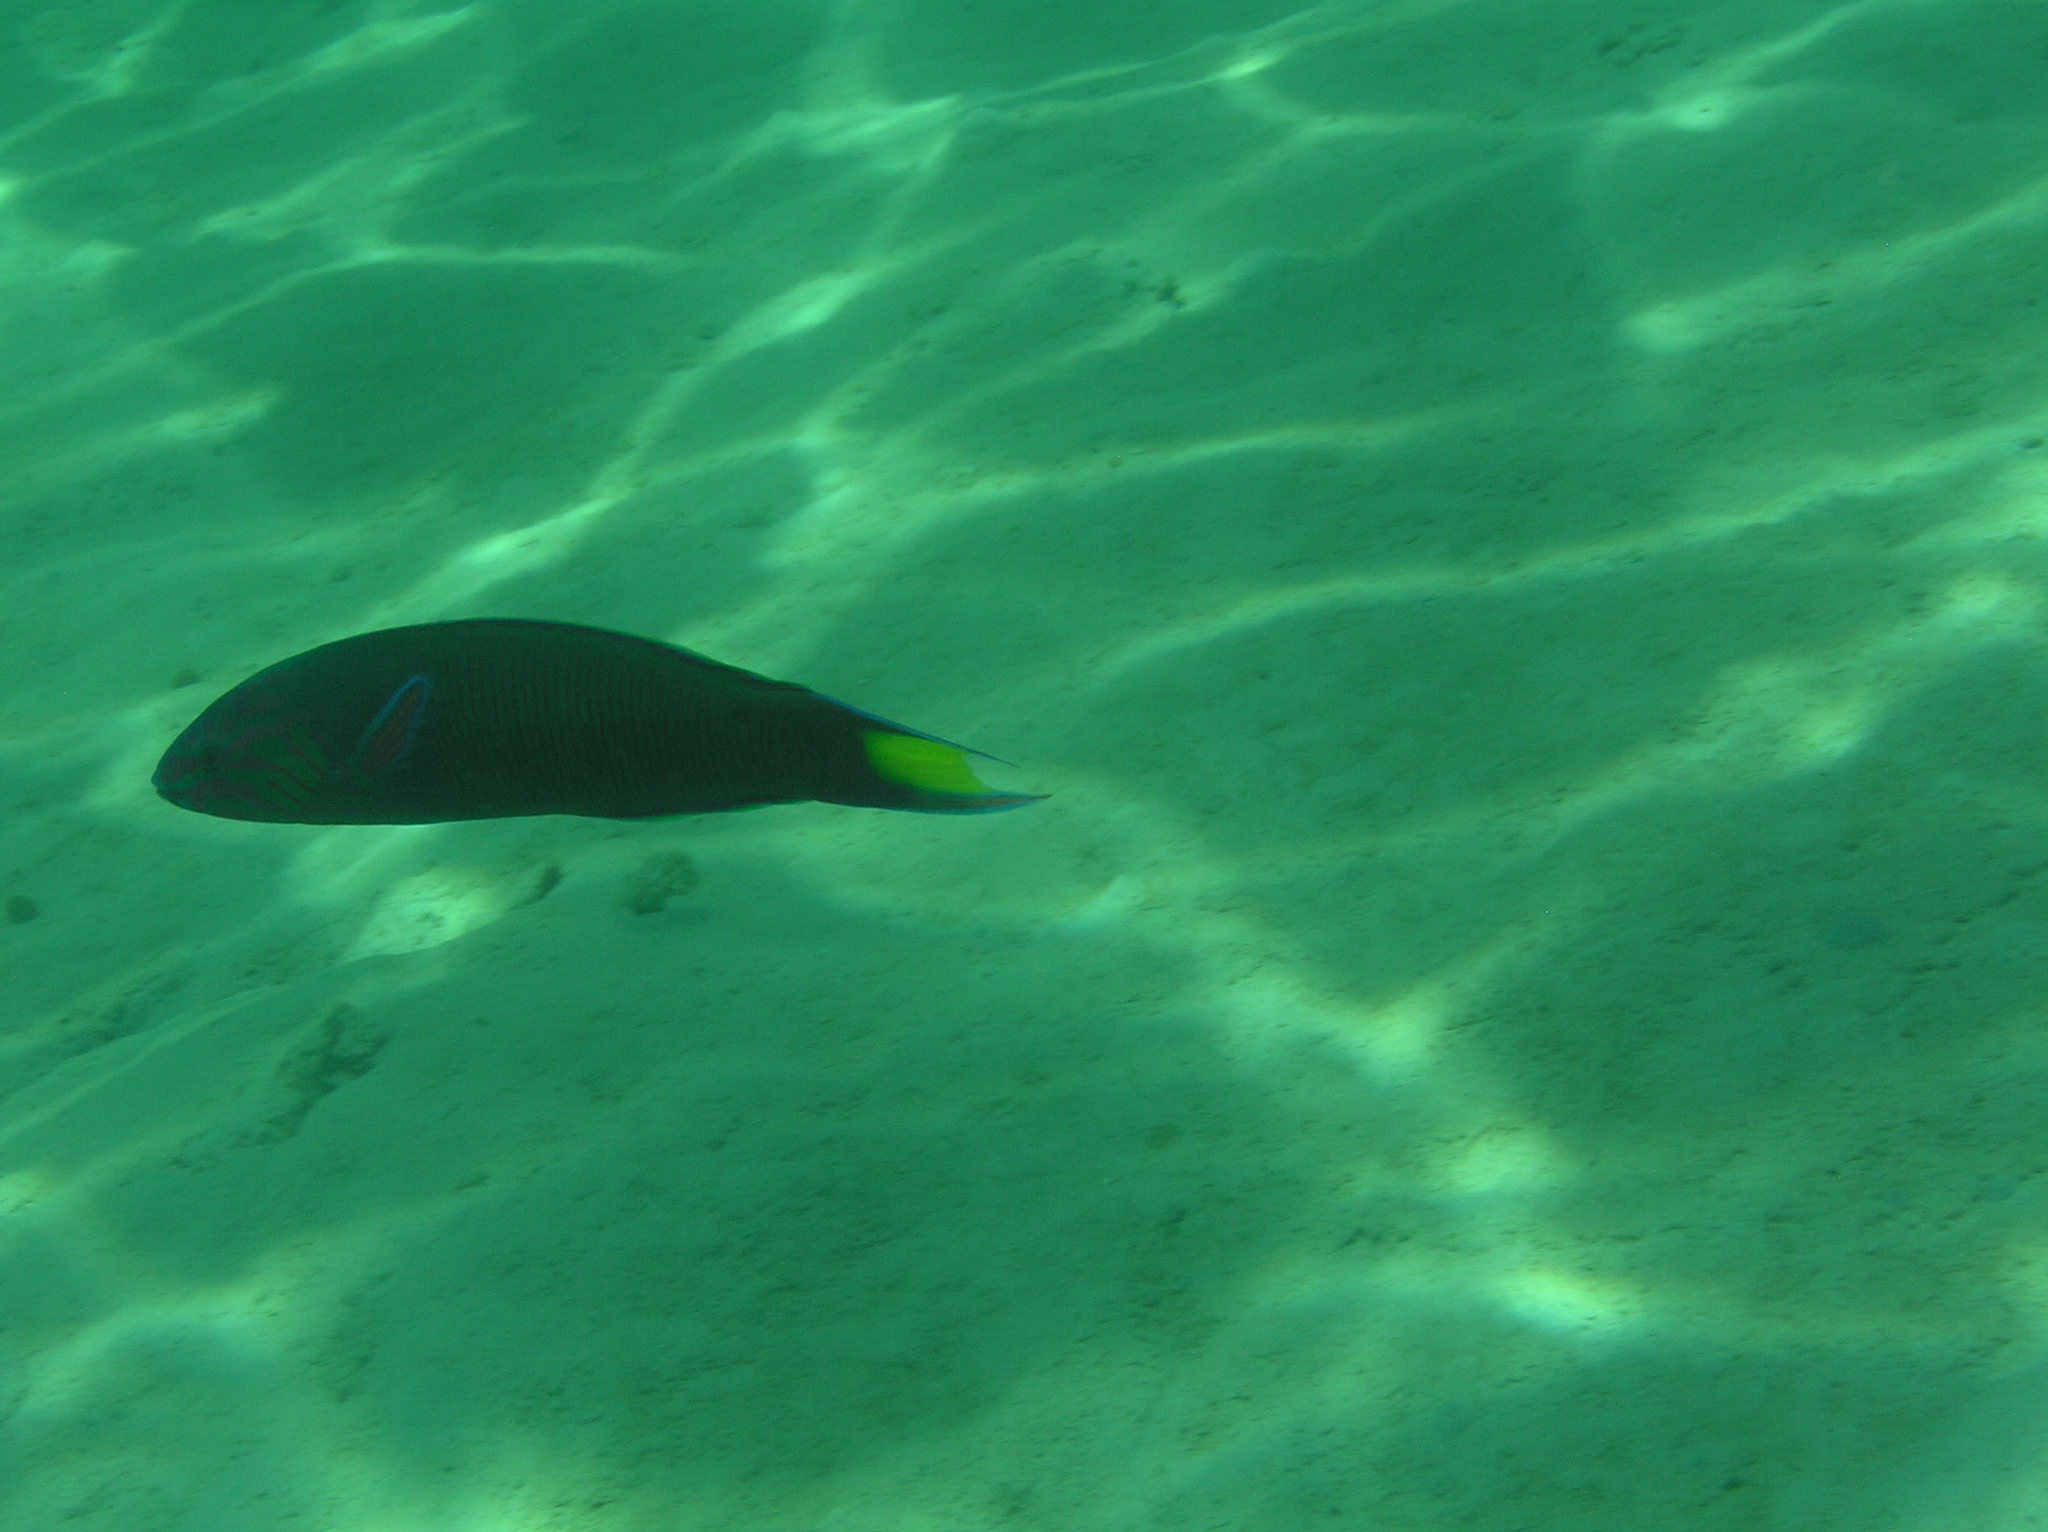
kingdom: Animalia
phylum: Chordata
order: Perciformes
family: Labridae
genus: Thalassoma
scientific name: Thalassoma lunare
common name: Blue wrasse
